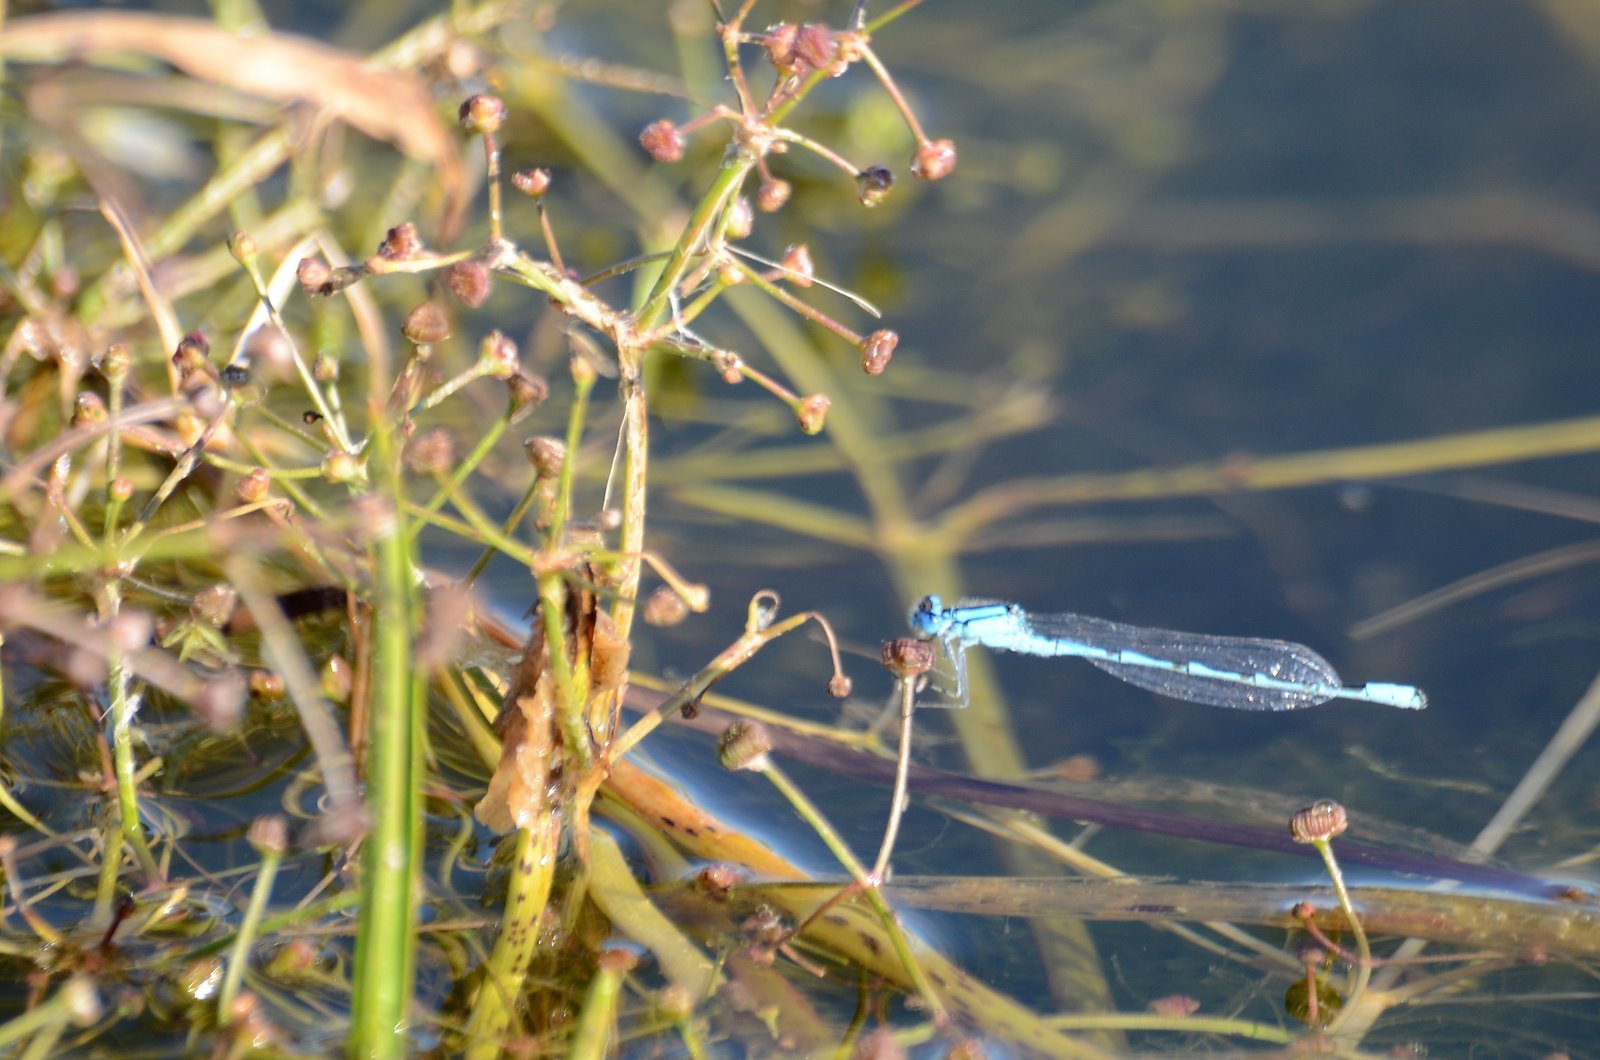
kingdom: Animalia
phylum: Arthropoda
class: Insecta
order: Odonata
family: Coenagrionidae
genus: Enallagma
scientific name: Enallagma cyathigerum
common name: Common blue damselfly
